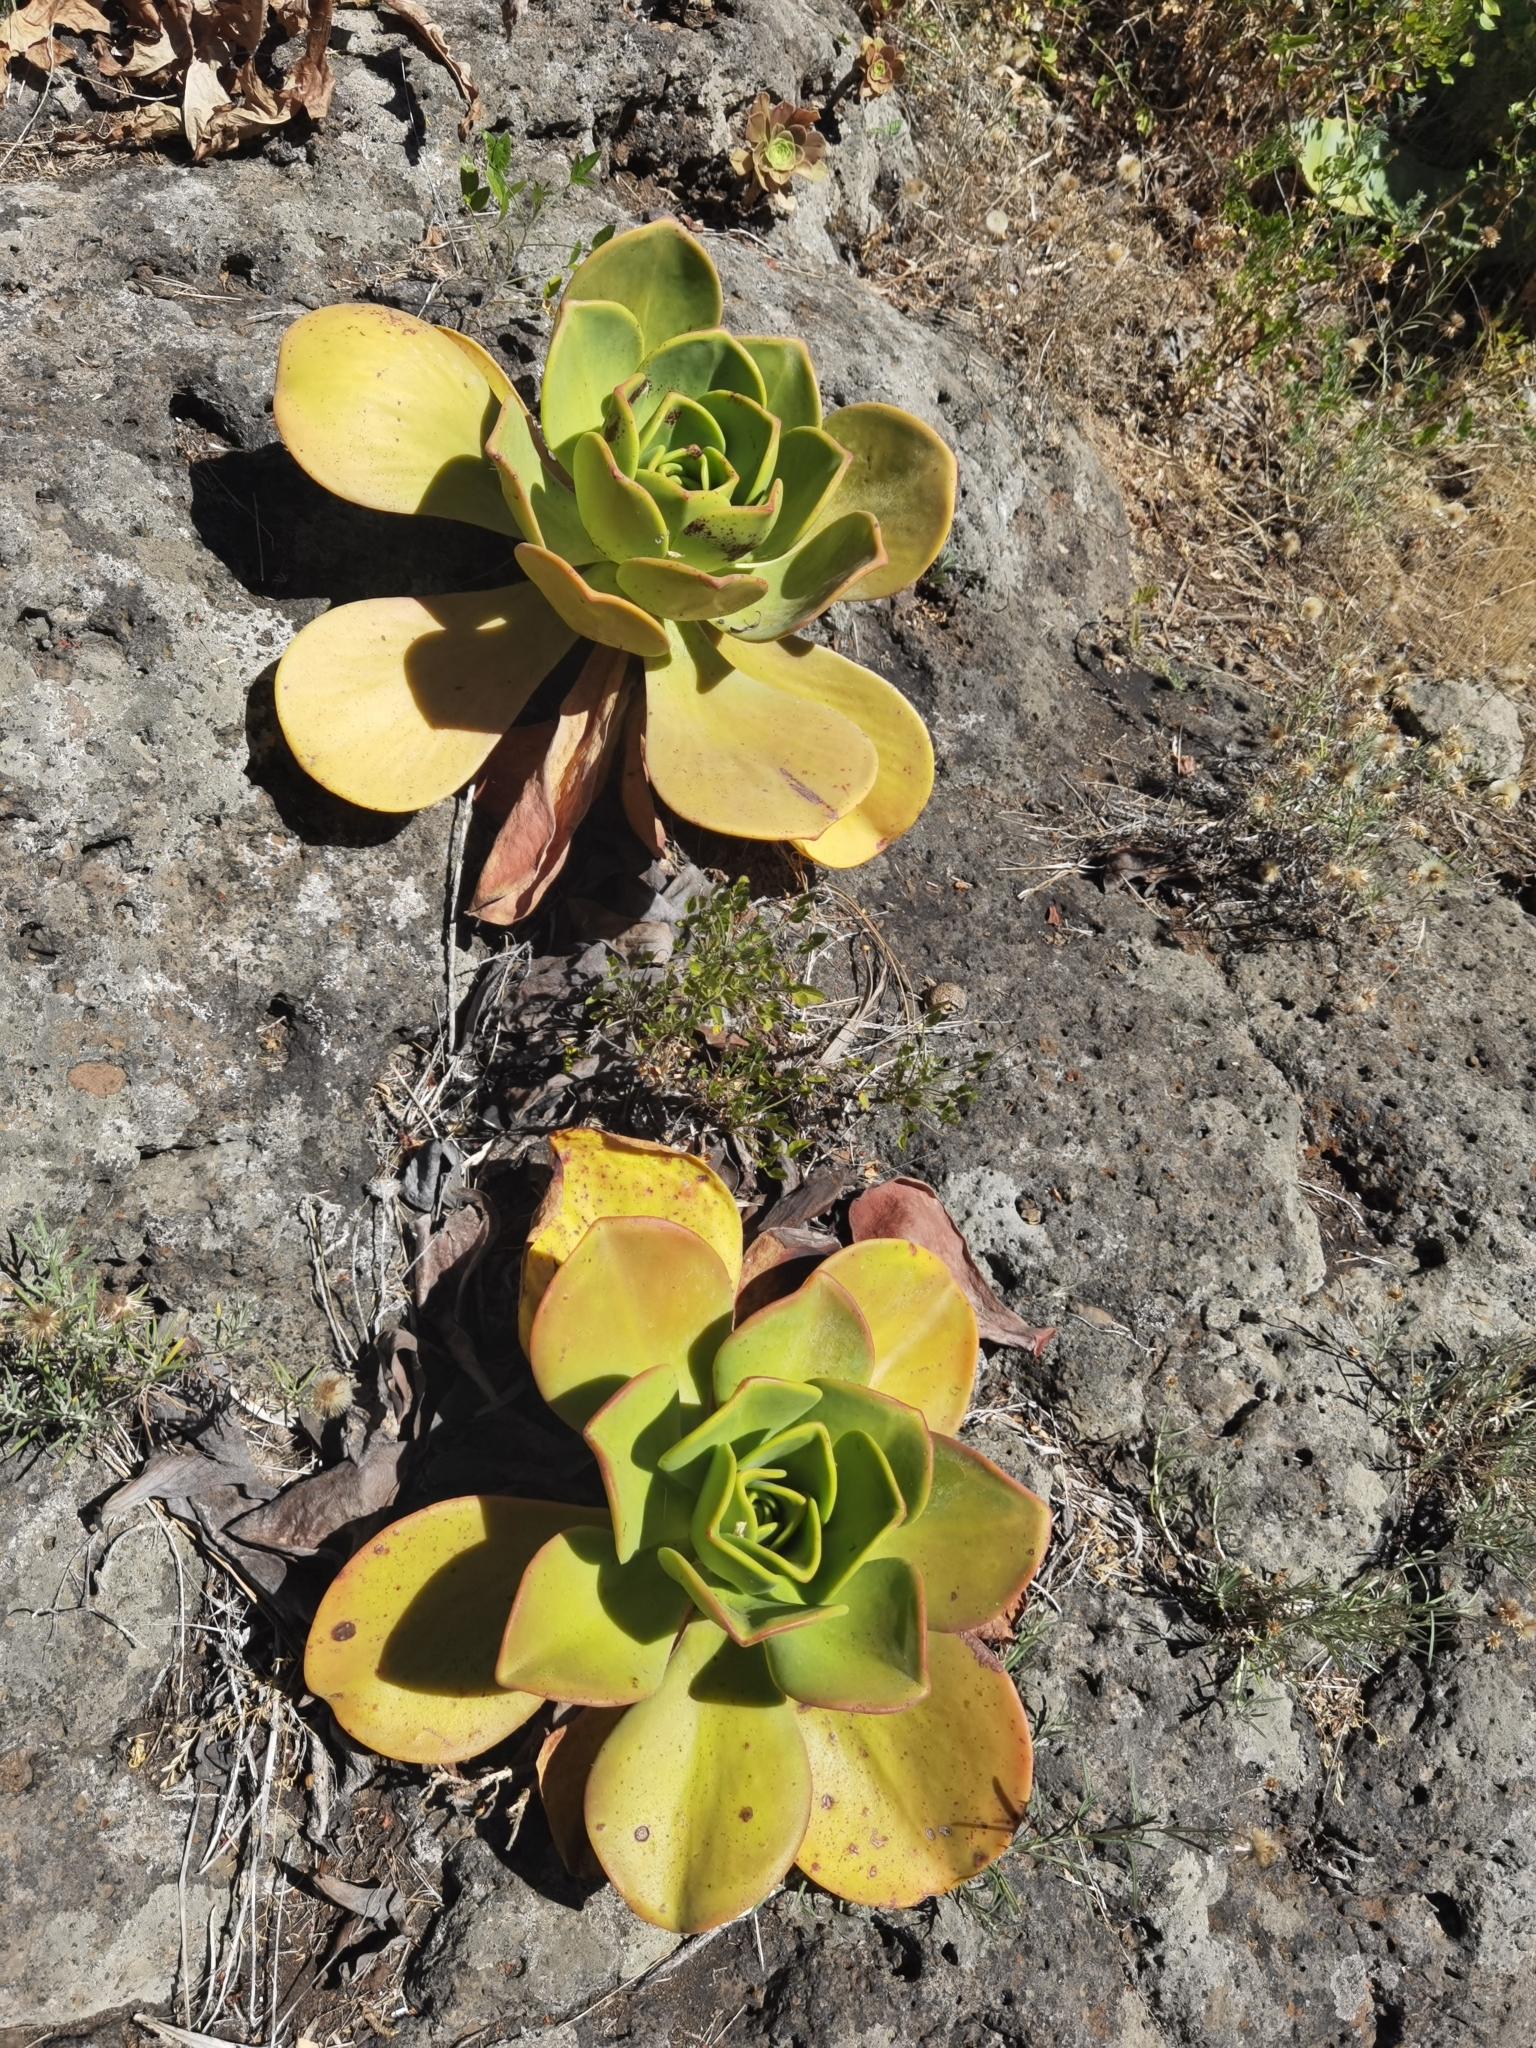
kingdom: Plantae
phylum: Tracheophyta
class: Magnoliopsida
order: Saxifragales
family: Crassulaceae
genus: Aeonium
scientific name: Aeonium nobile
